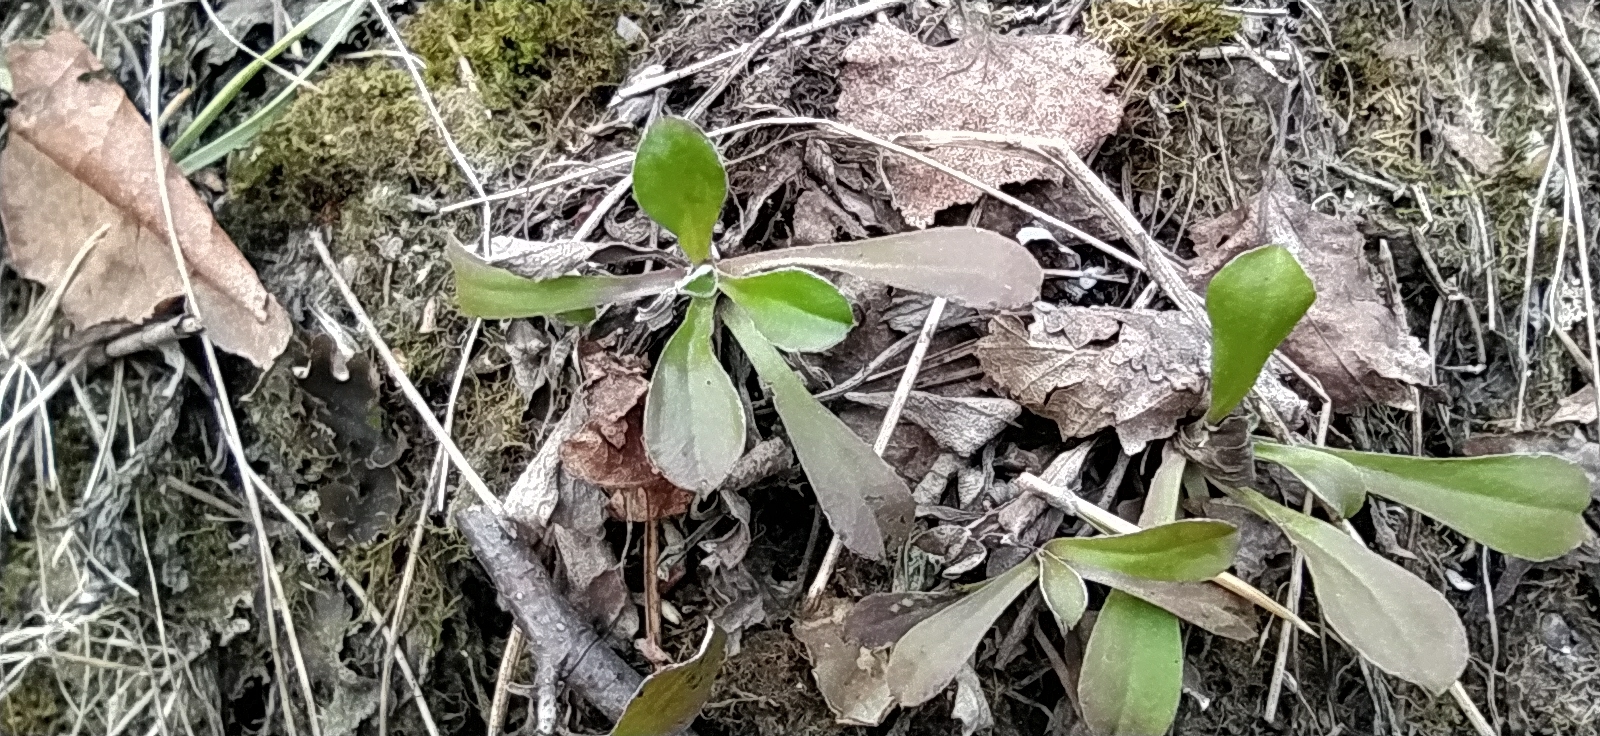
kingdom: Plantae
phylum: Tracheophyta
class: Magnoliopsida
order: Asterales
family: Asteraceae
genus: Antennaria
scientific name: Antennaria dioica
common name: Mountain everlasting
